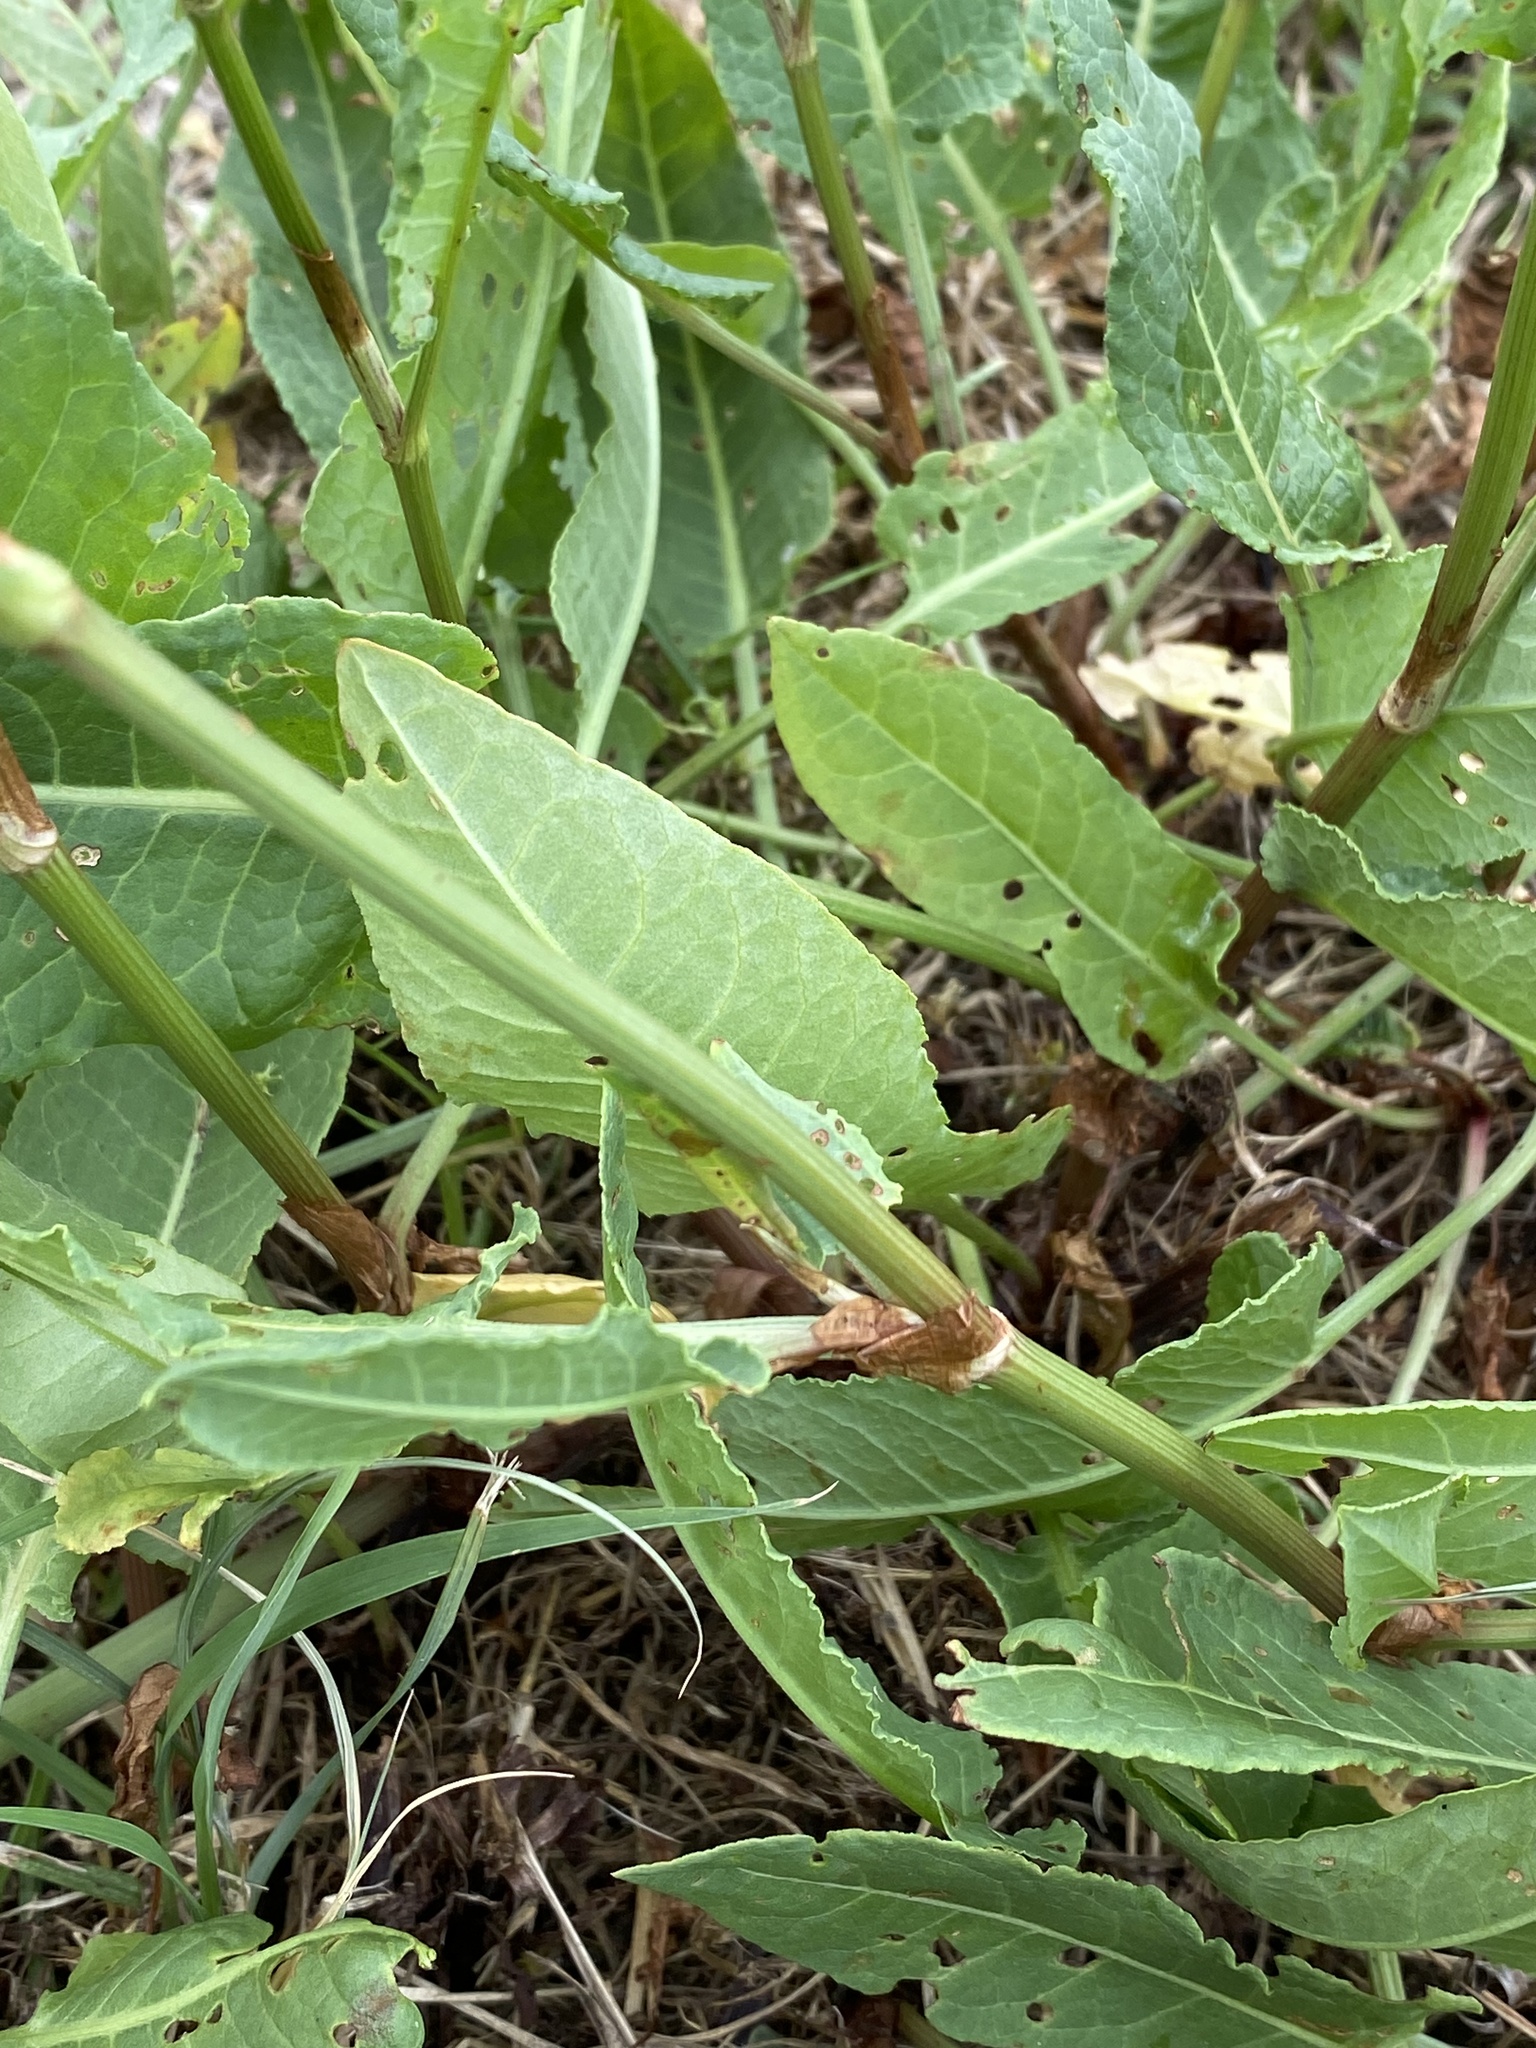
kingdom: Plantae
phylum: Tracheophyta
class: Magnoliopsida
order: Caryophyllales
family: Polygonaceae
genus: Rumex
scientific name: Rumex brownii
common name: Hooked dock
